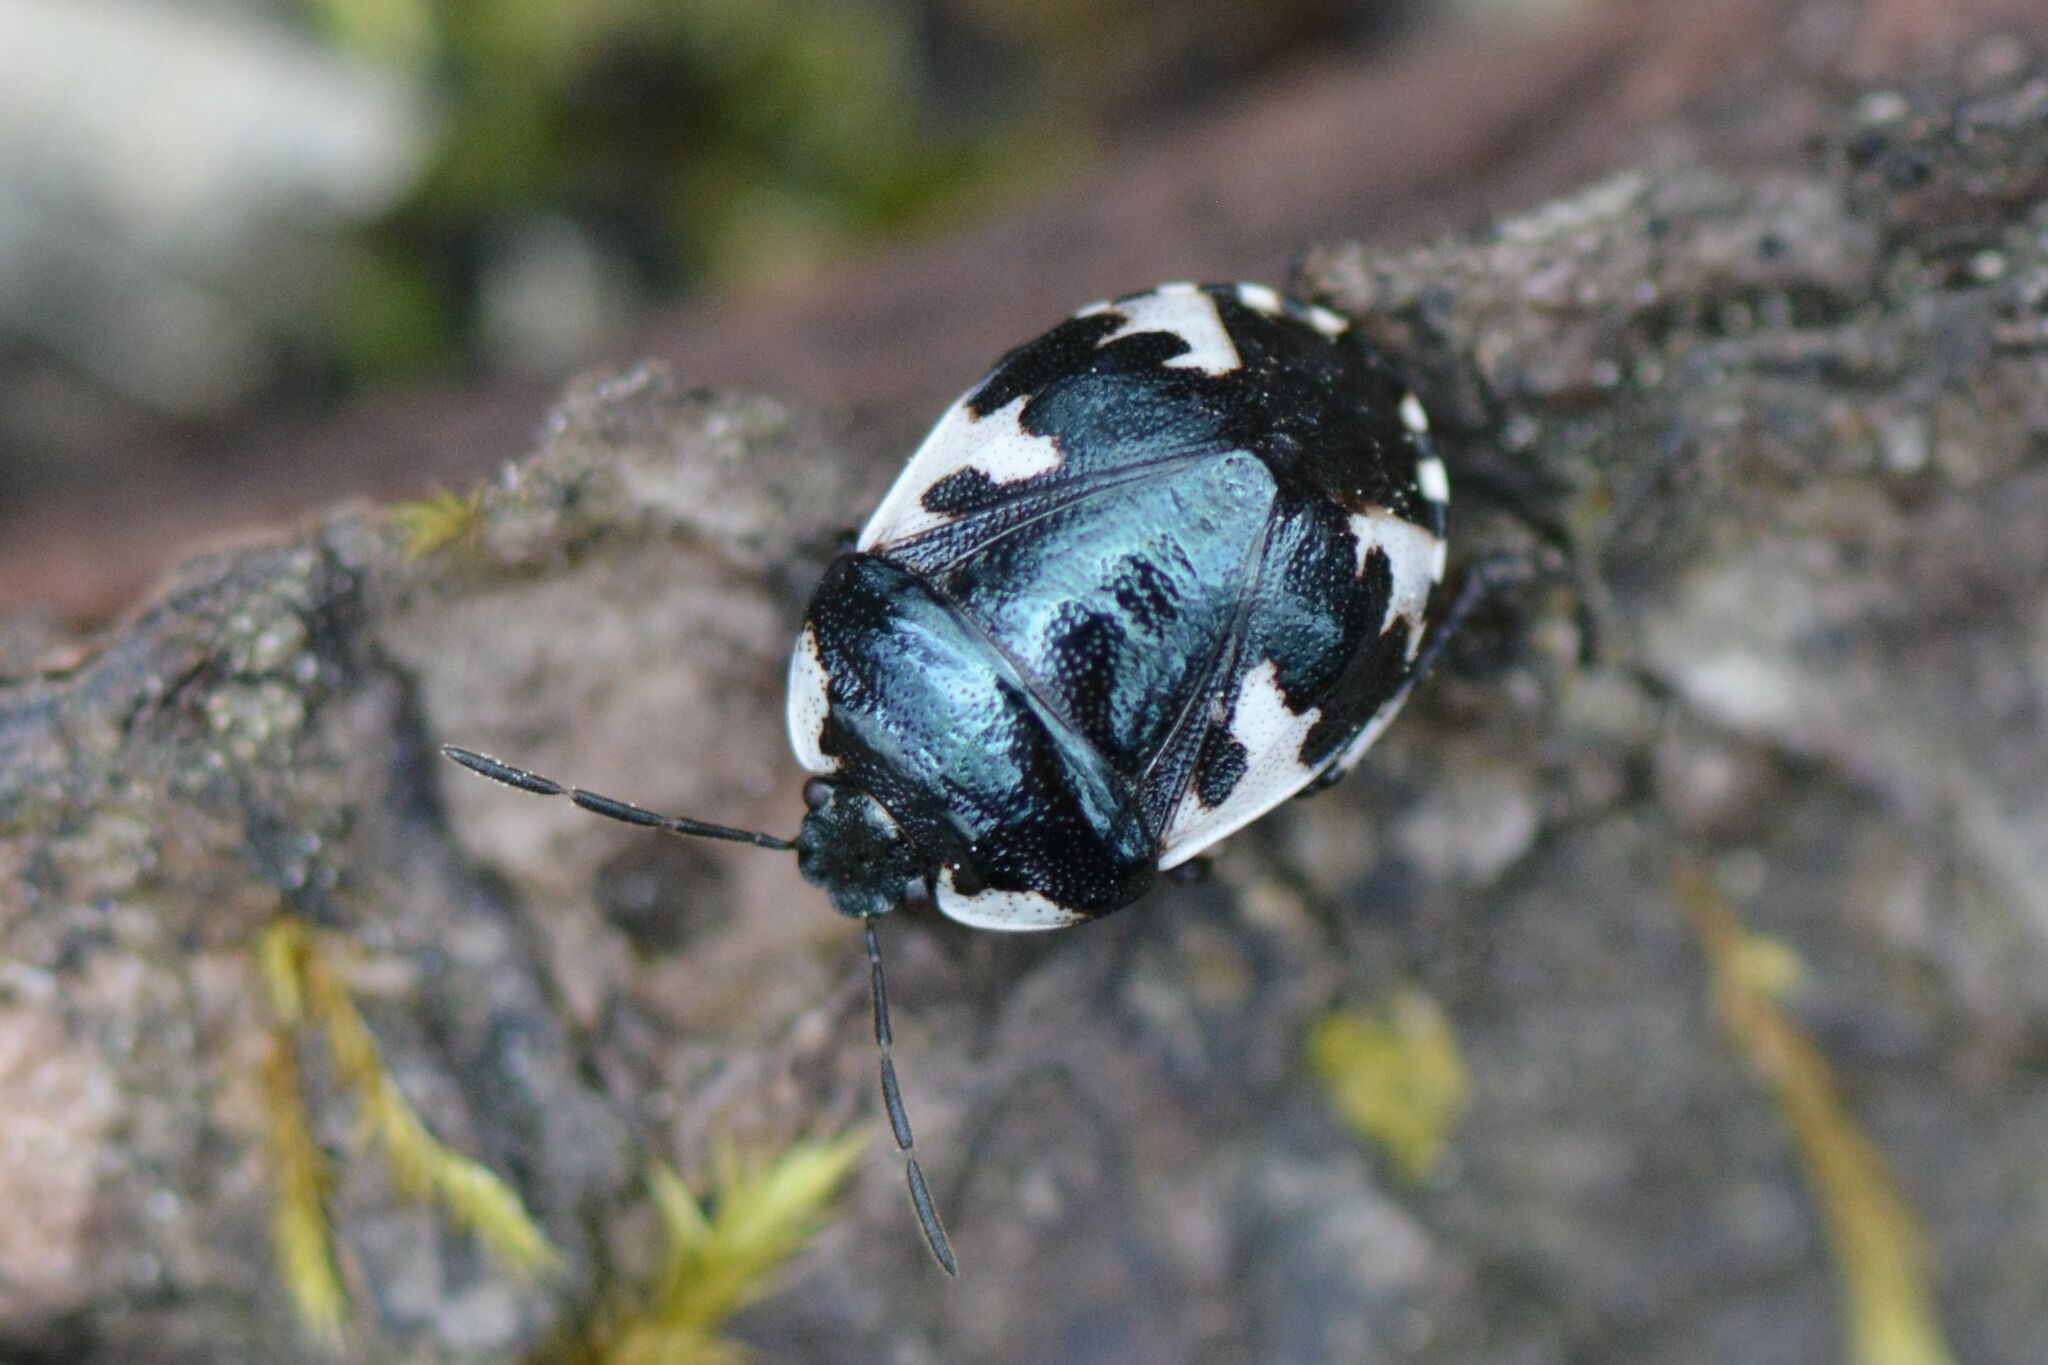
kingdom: Animalia
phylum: Arthropoda
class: Insecta
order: Hemiptera
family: Cydnidae
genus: Tritomegas
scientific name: Tritomegas rotundipennis
